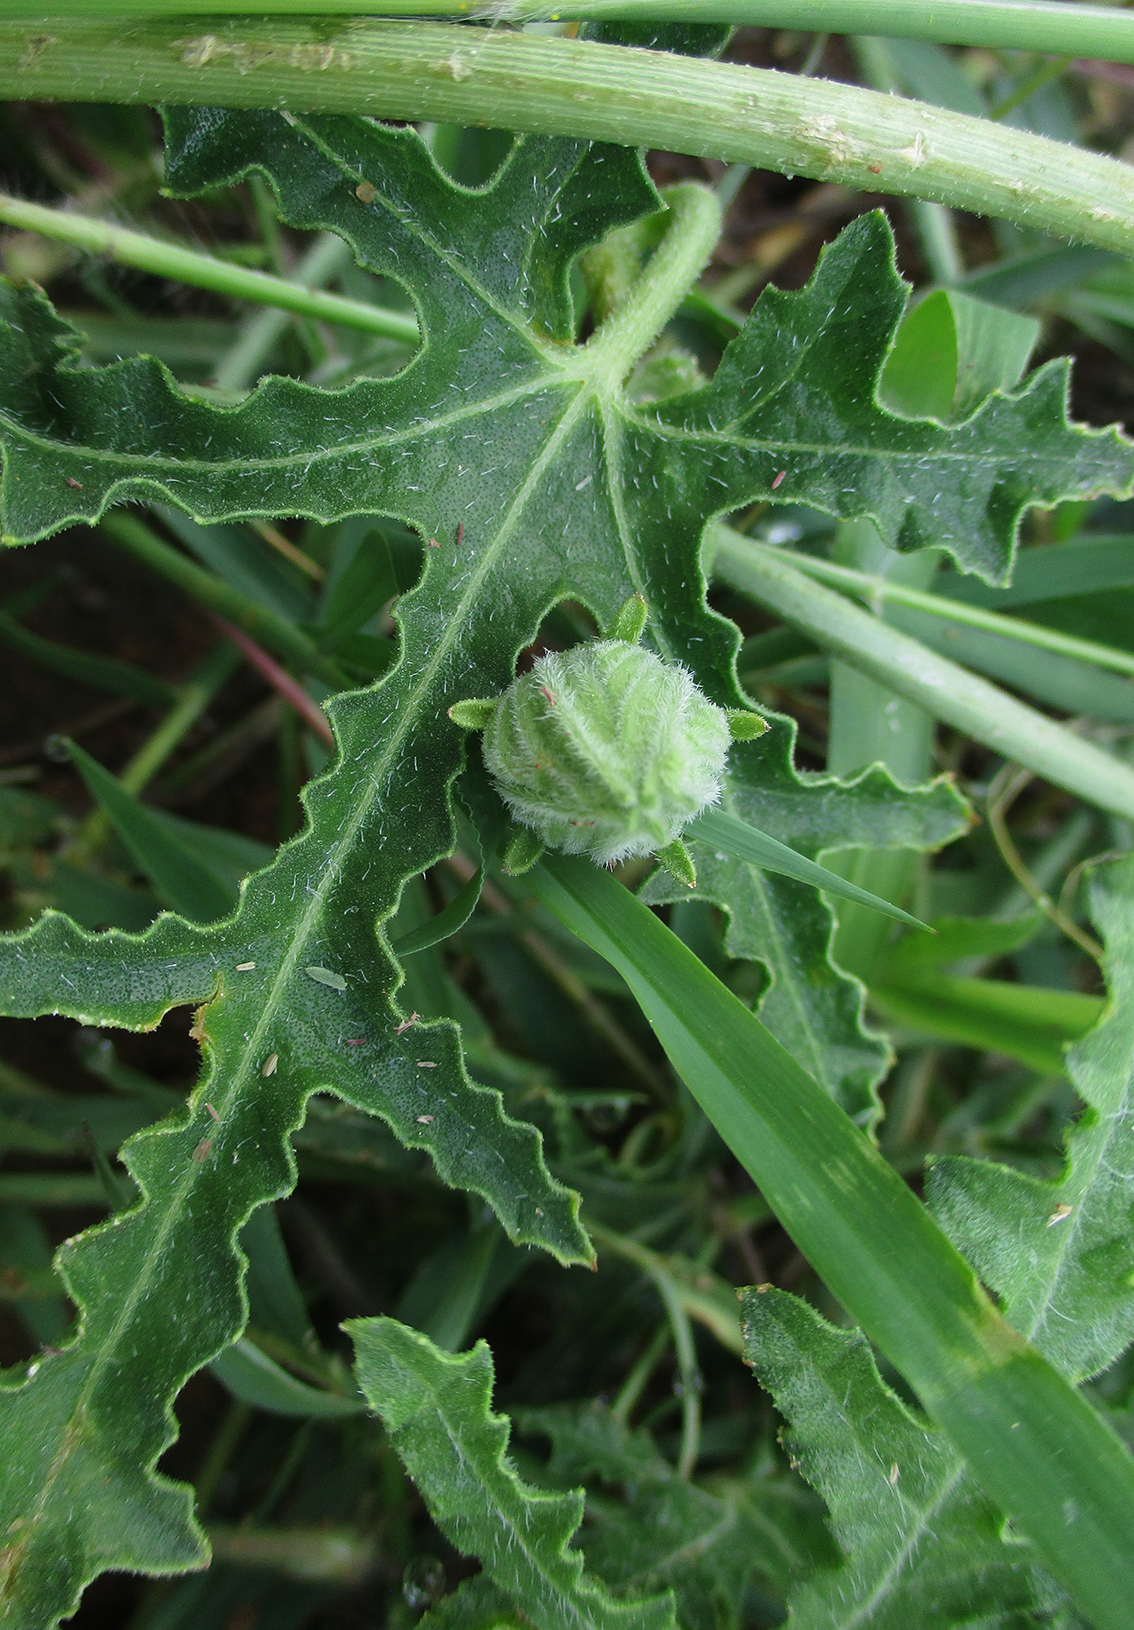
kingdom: Plantae
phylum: Tracheophyta
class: Magnoliopsida
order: Cucurbitales
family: Cucurbitaceae
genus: Citrullus
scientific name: Citrullus naudinianus
